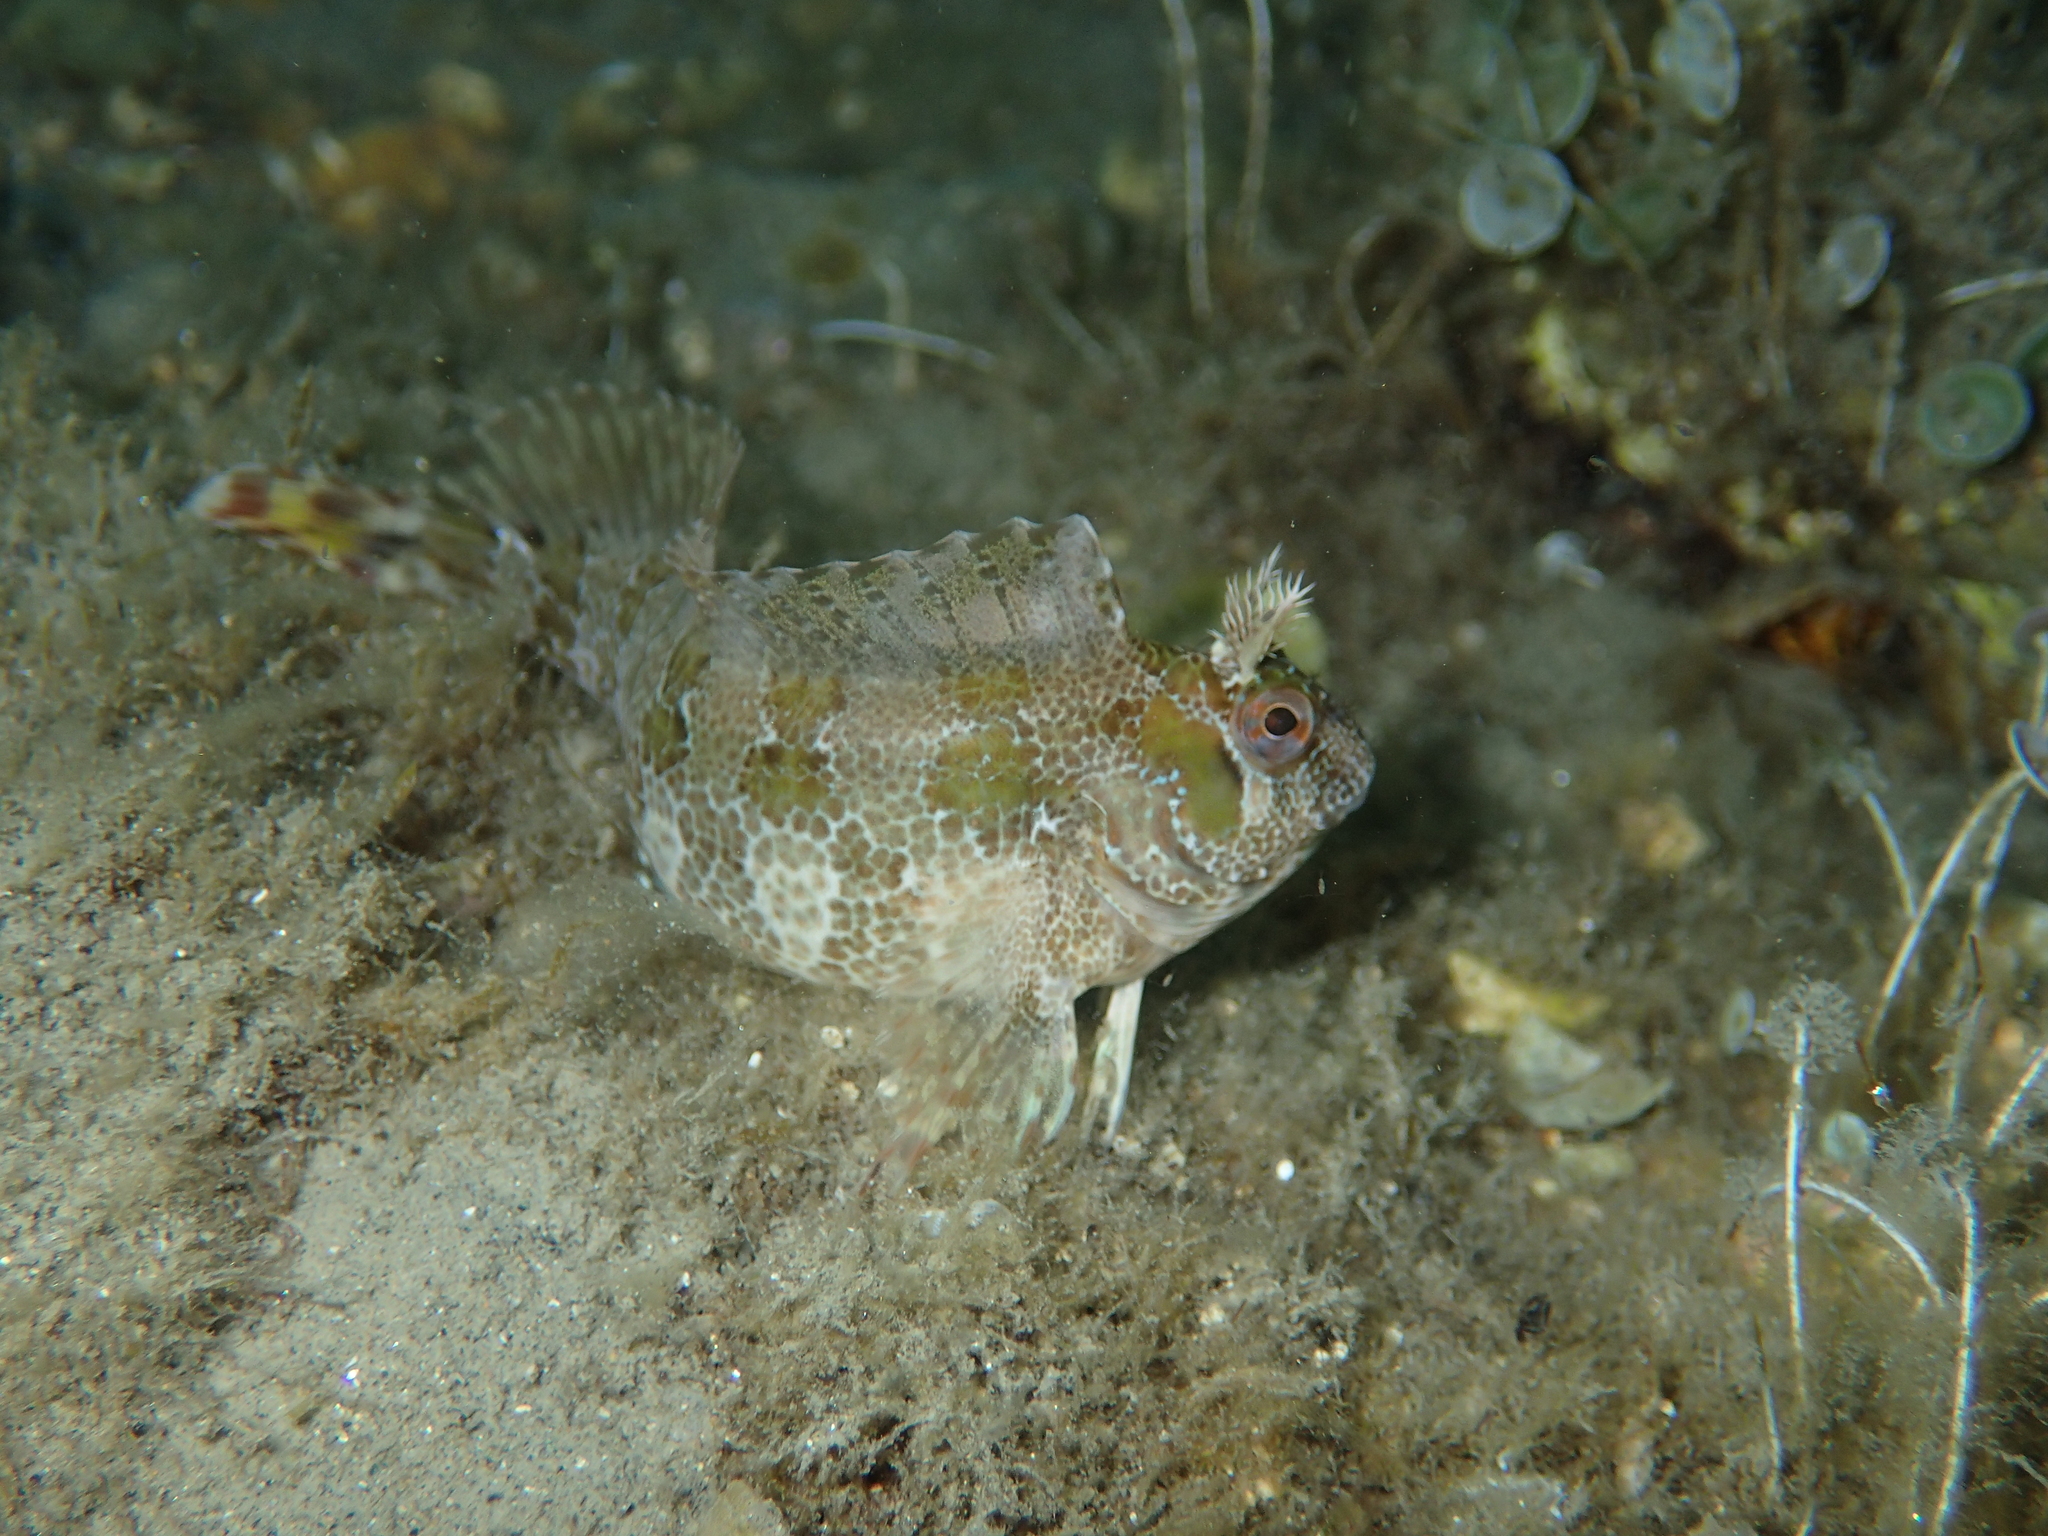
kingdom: Animalia
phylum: Chordata
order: Perciformes
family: Blenniidae
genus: Parablennius
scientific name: Parablennius gattorugine
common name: Tompot blenny
